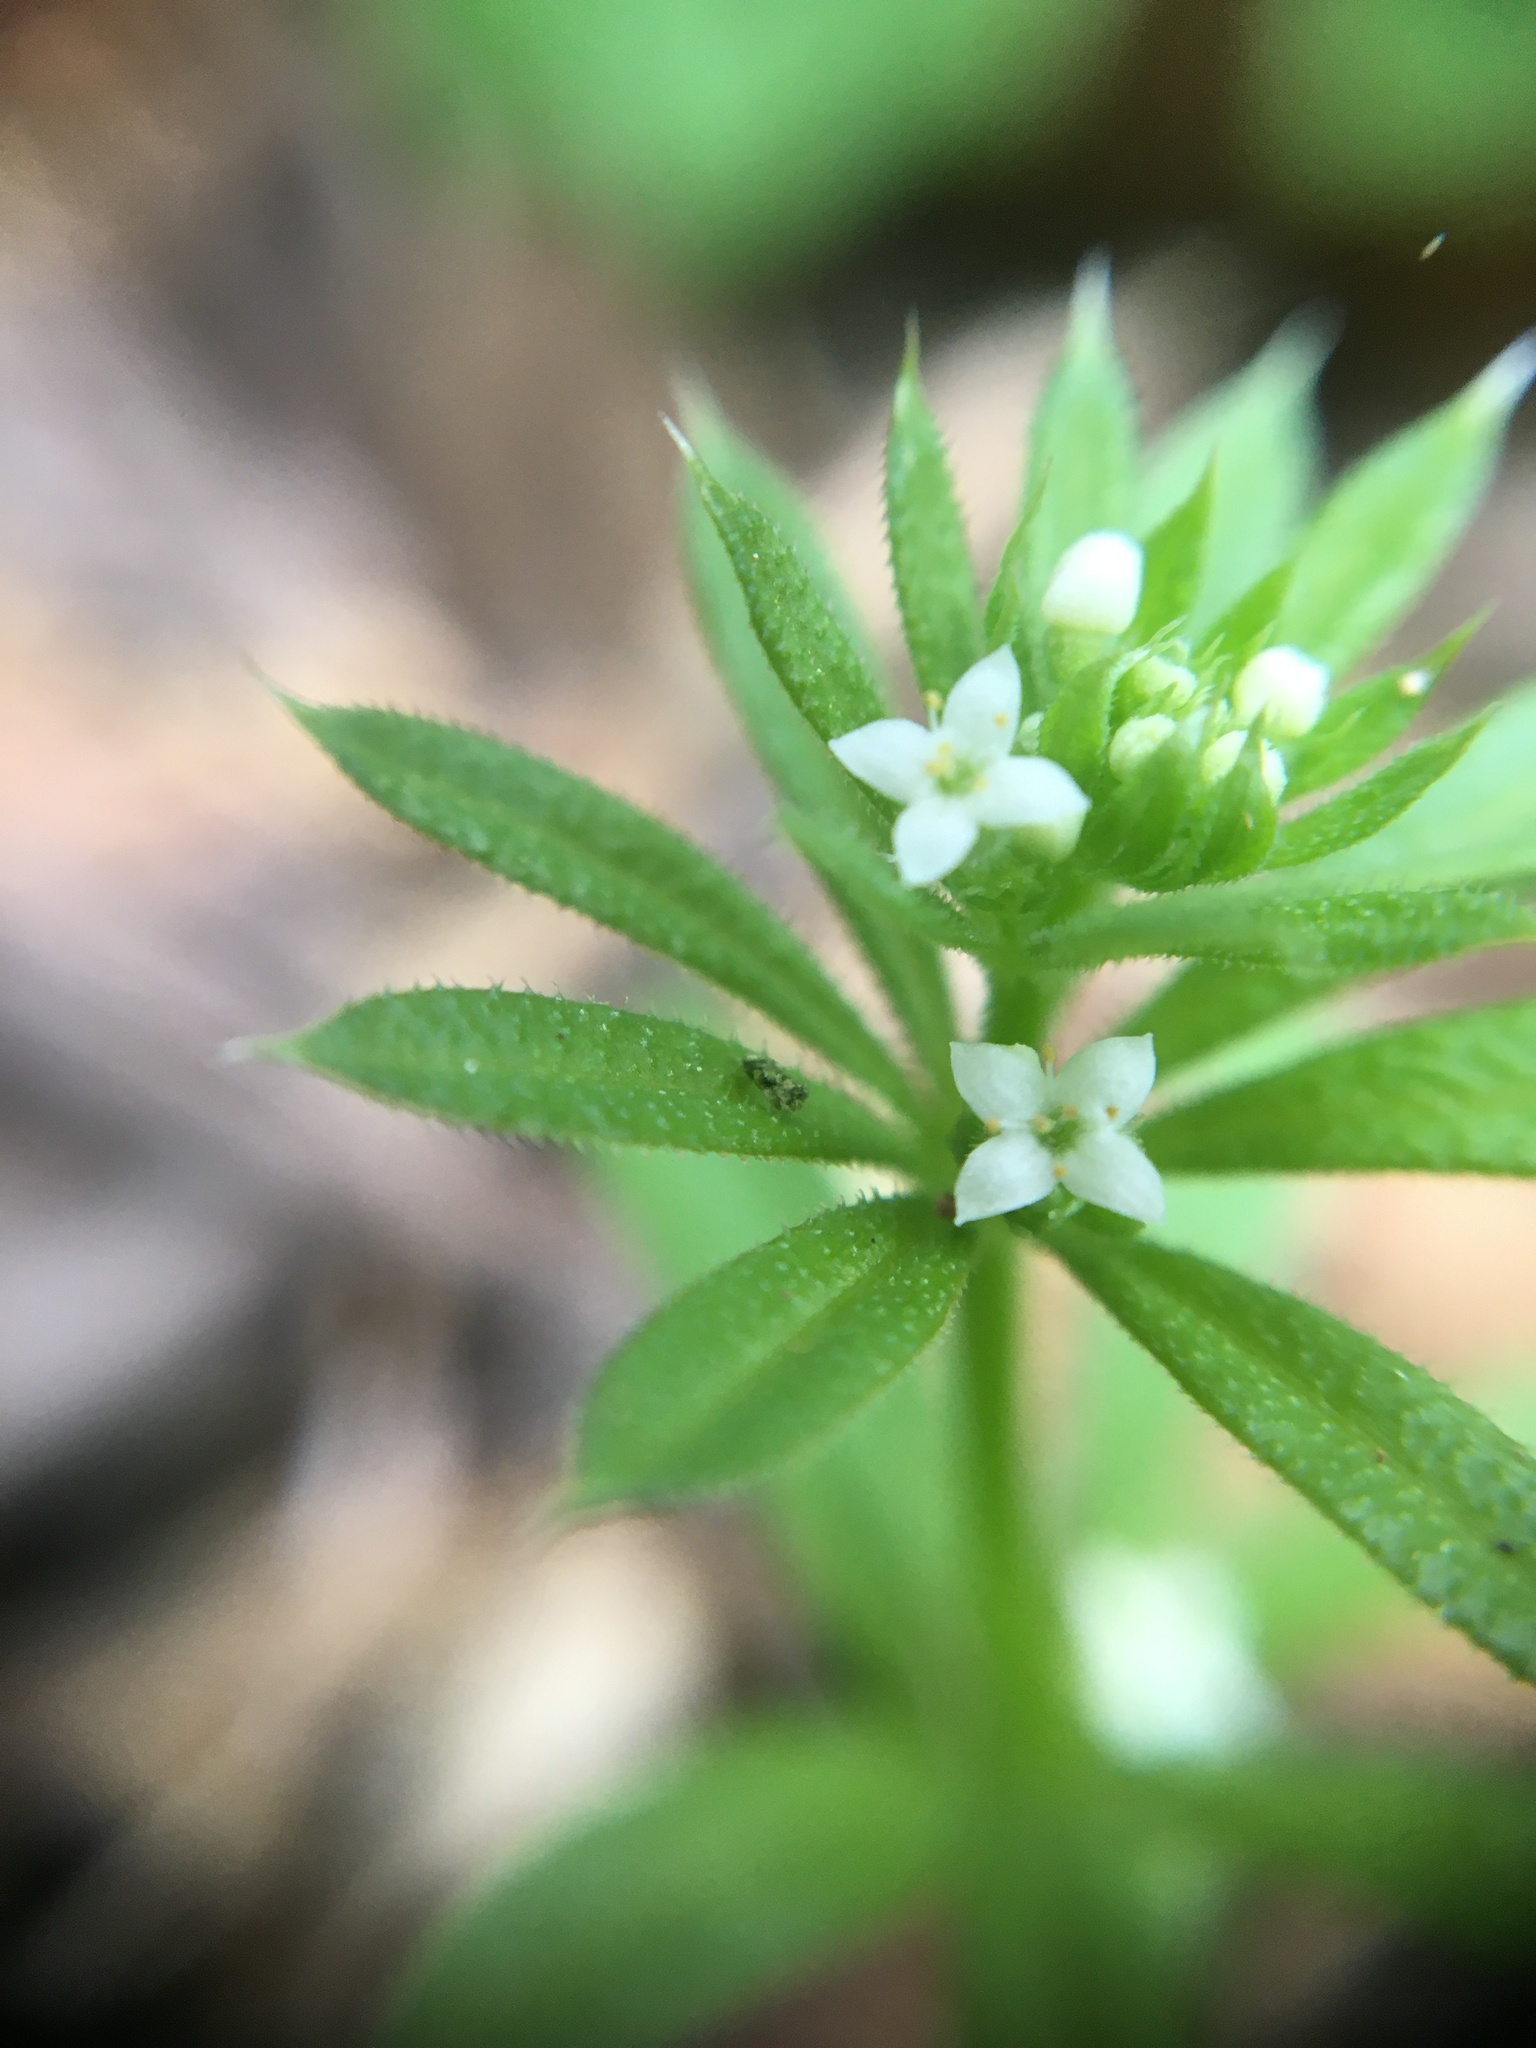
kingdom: Plantae
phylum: Tracheophyta
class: Magnoliopsida
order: Gentianales
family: Rubiaceae
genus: Galium
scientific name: Galium aparine
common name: Cleavers
